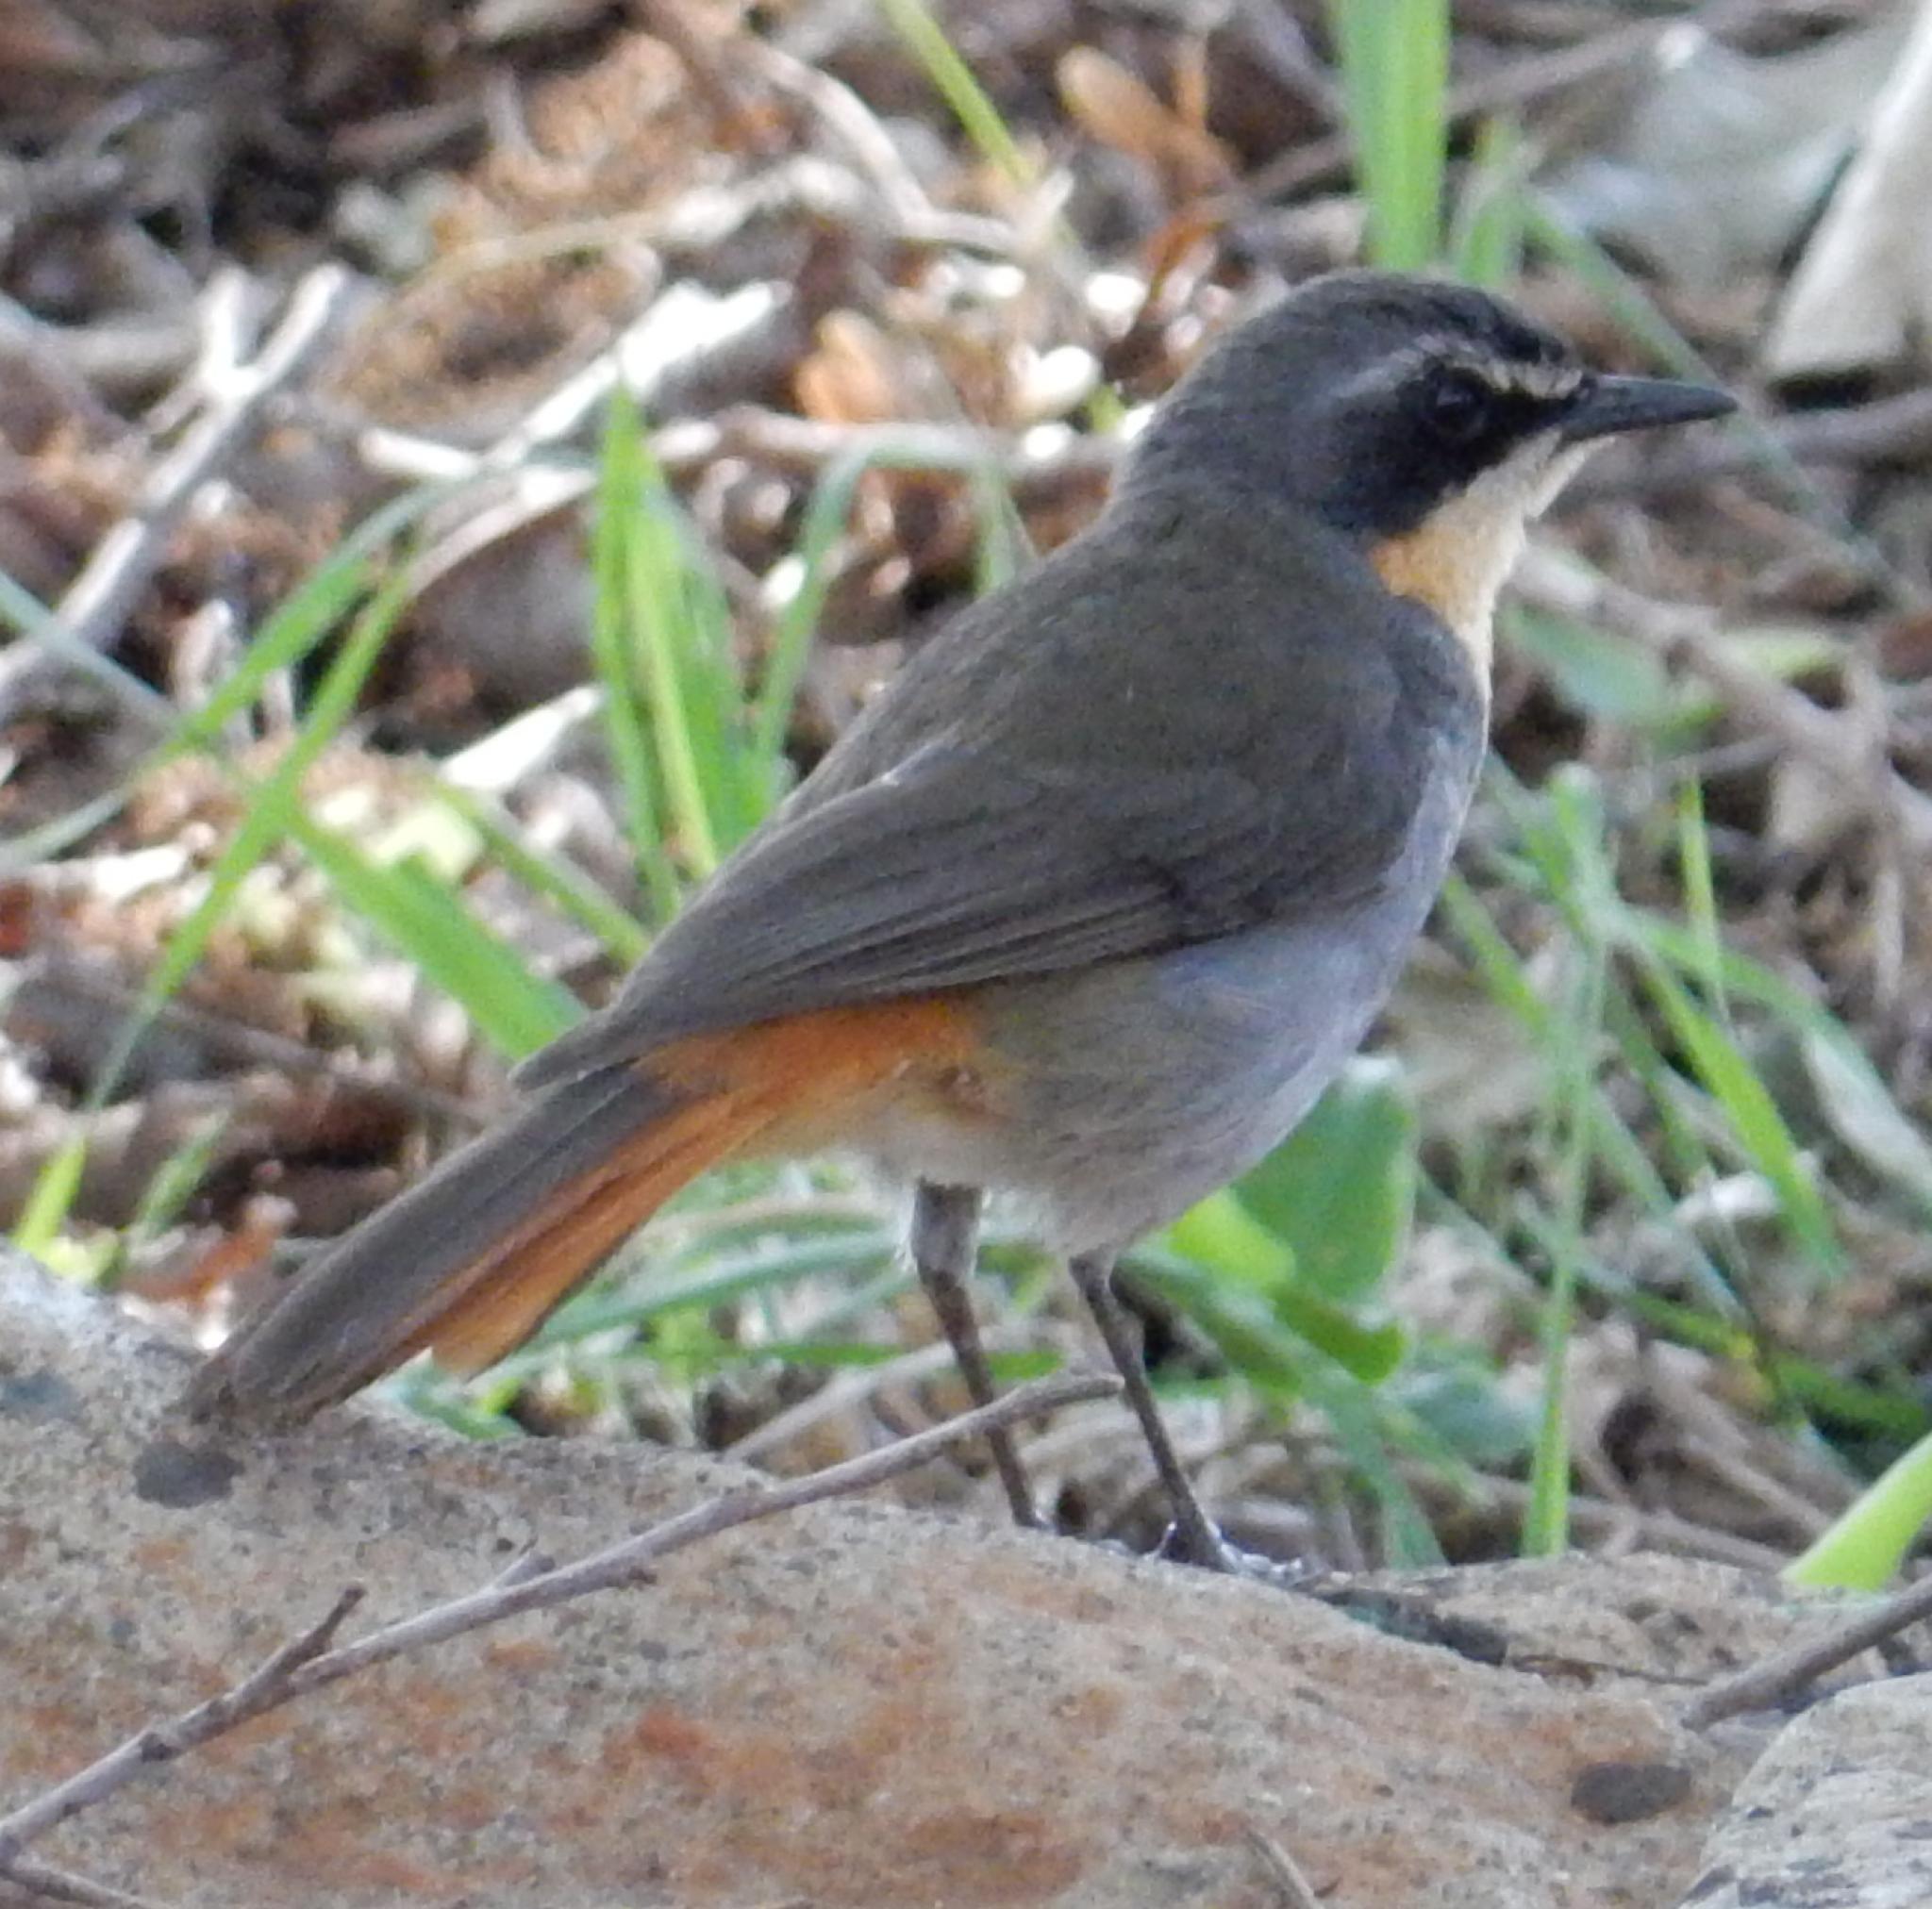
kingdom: Animalia
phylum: Chordata
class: Aves
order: Passeriformes
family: Muscicapidae
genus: Cossypha
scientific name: Cossypha caffra
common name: Cape robin-chat
